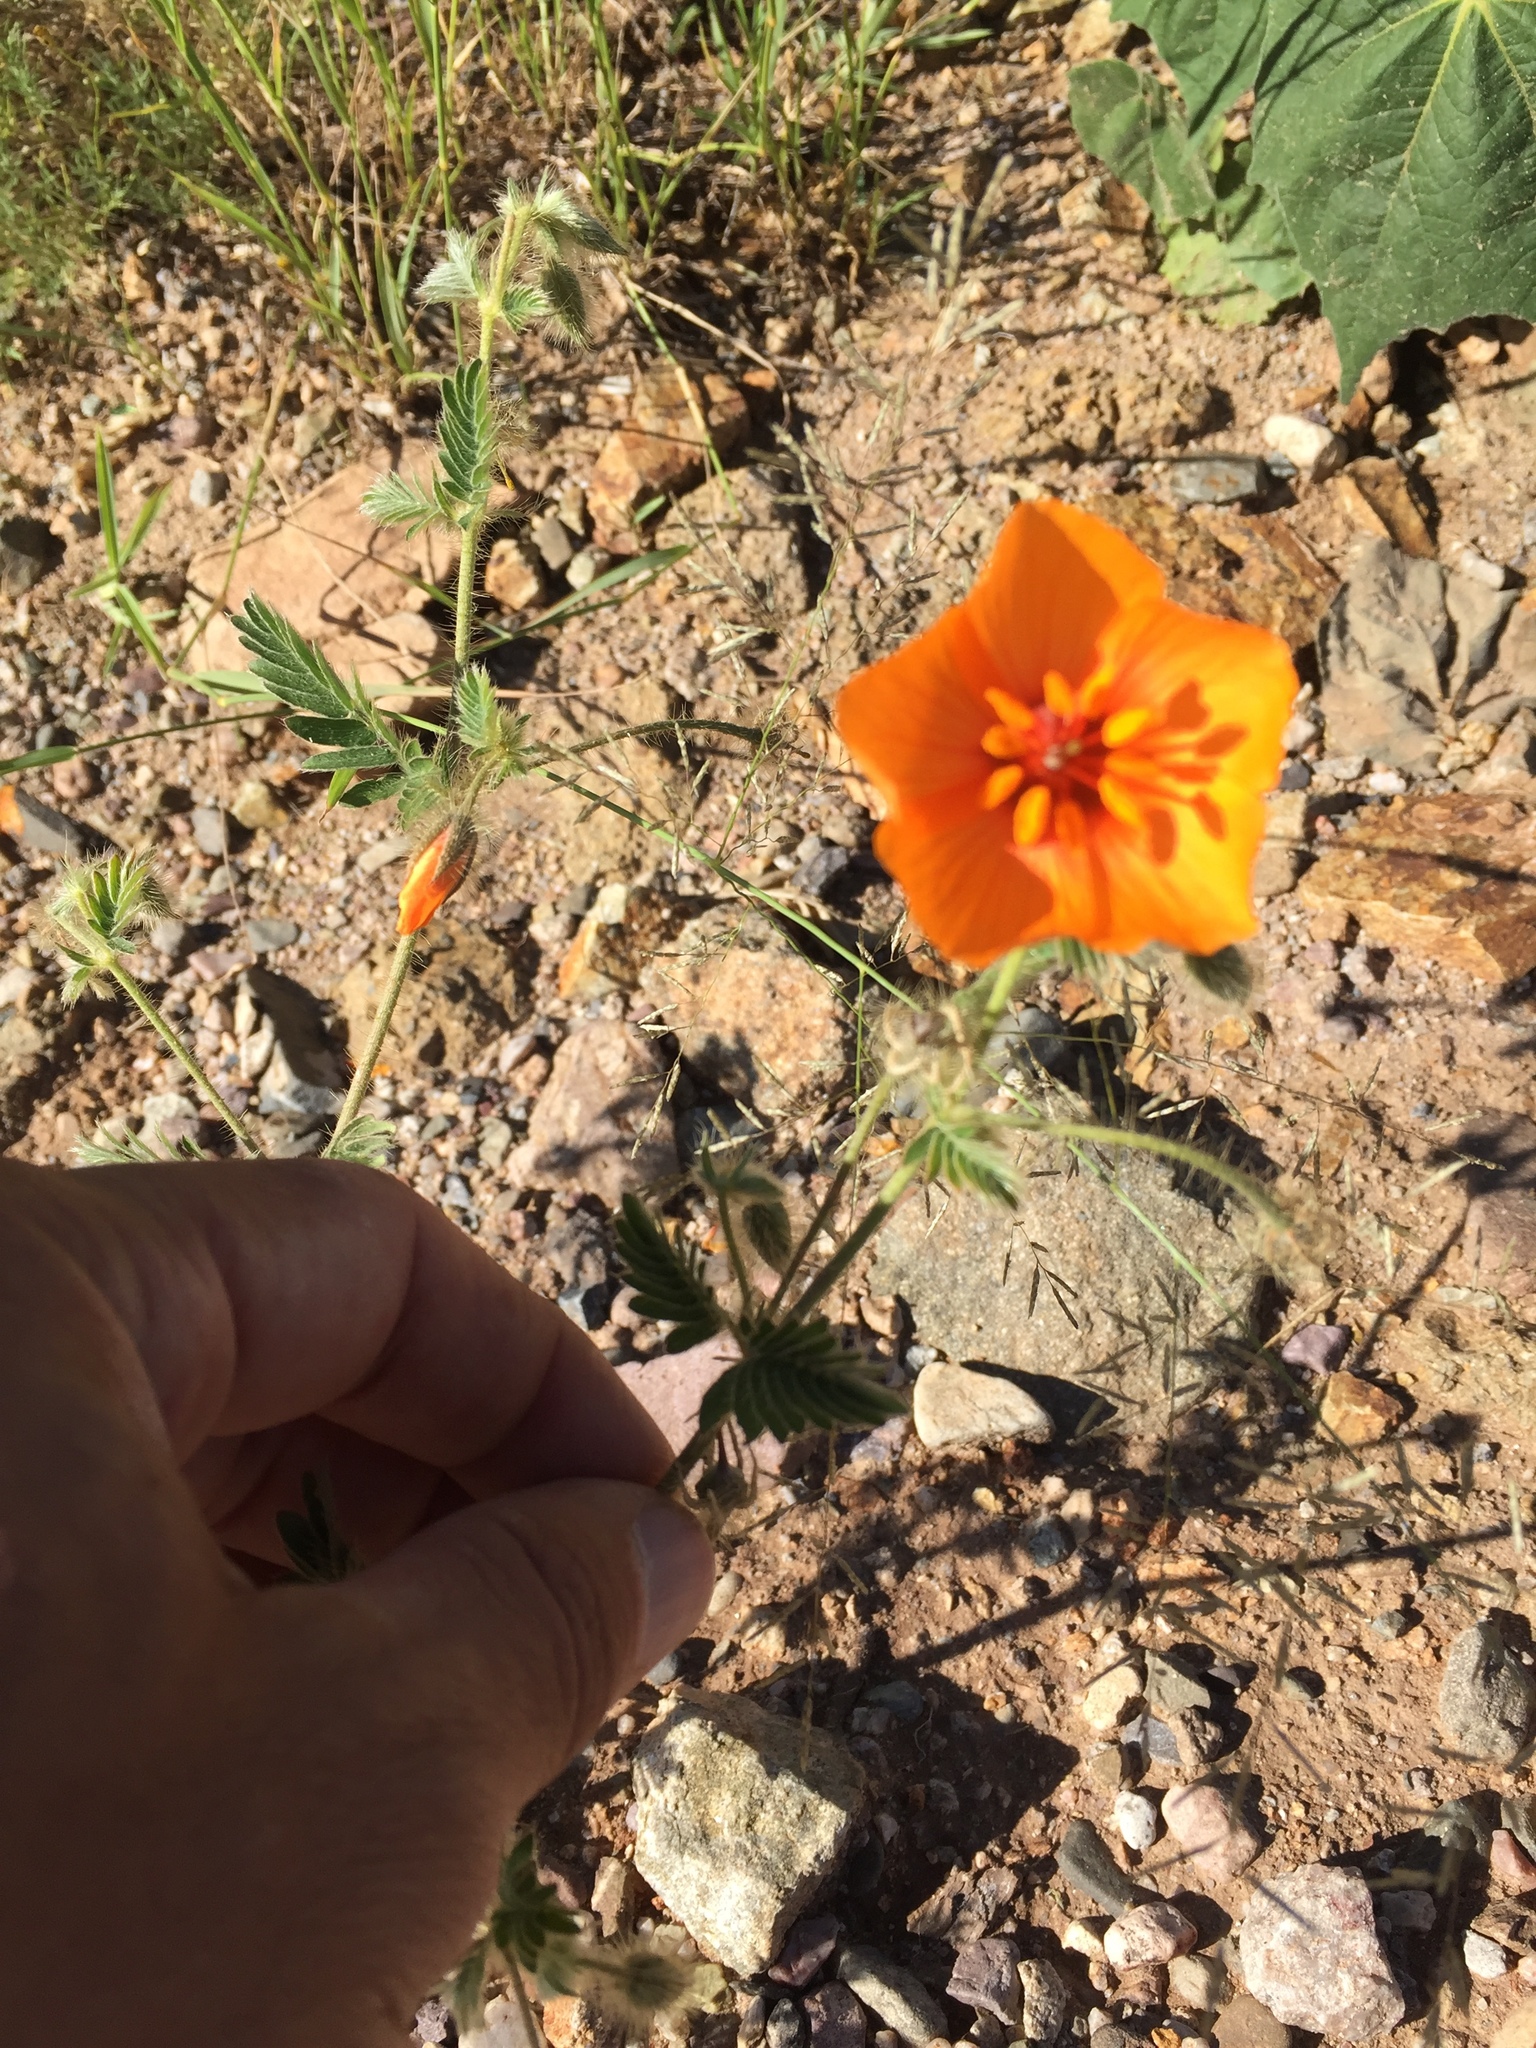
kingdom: Plantae
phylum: Tracheophyta
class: Magnoliopsida
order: Zygophyllales
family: Zygophyllaceae
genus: Kallstroemia
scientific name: Kallstroemia grandiflora
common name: Arizona-poppy
